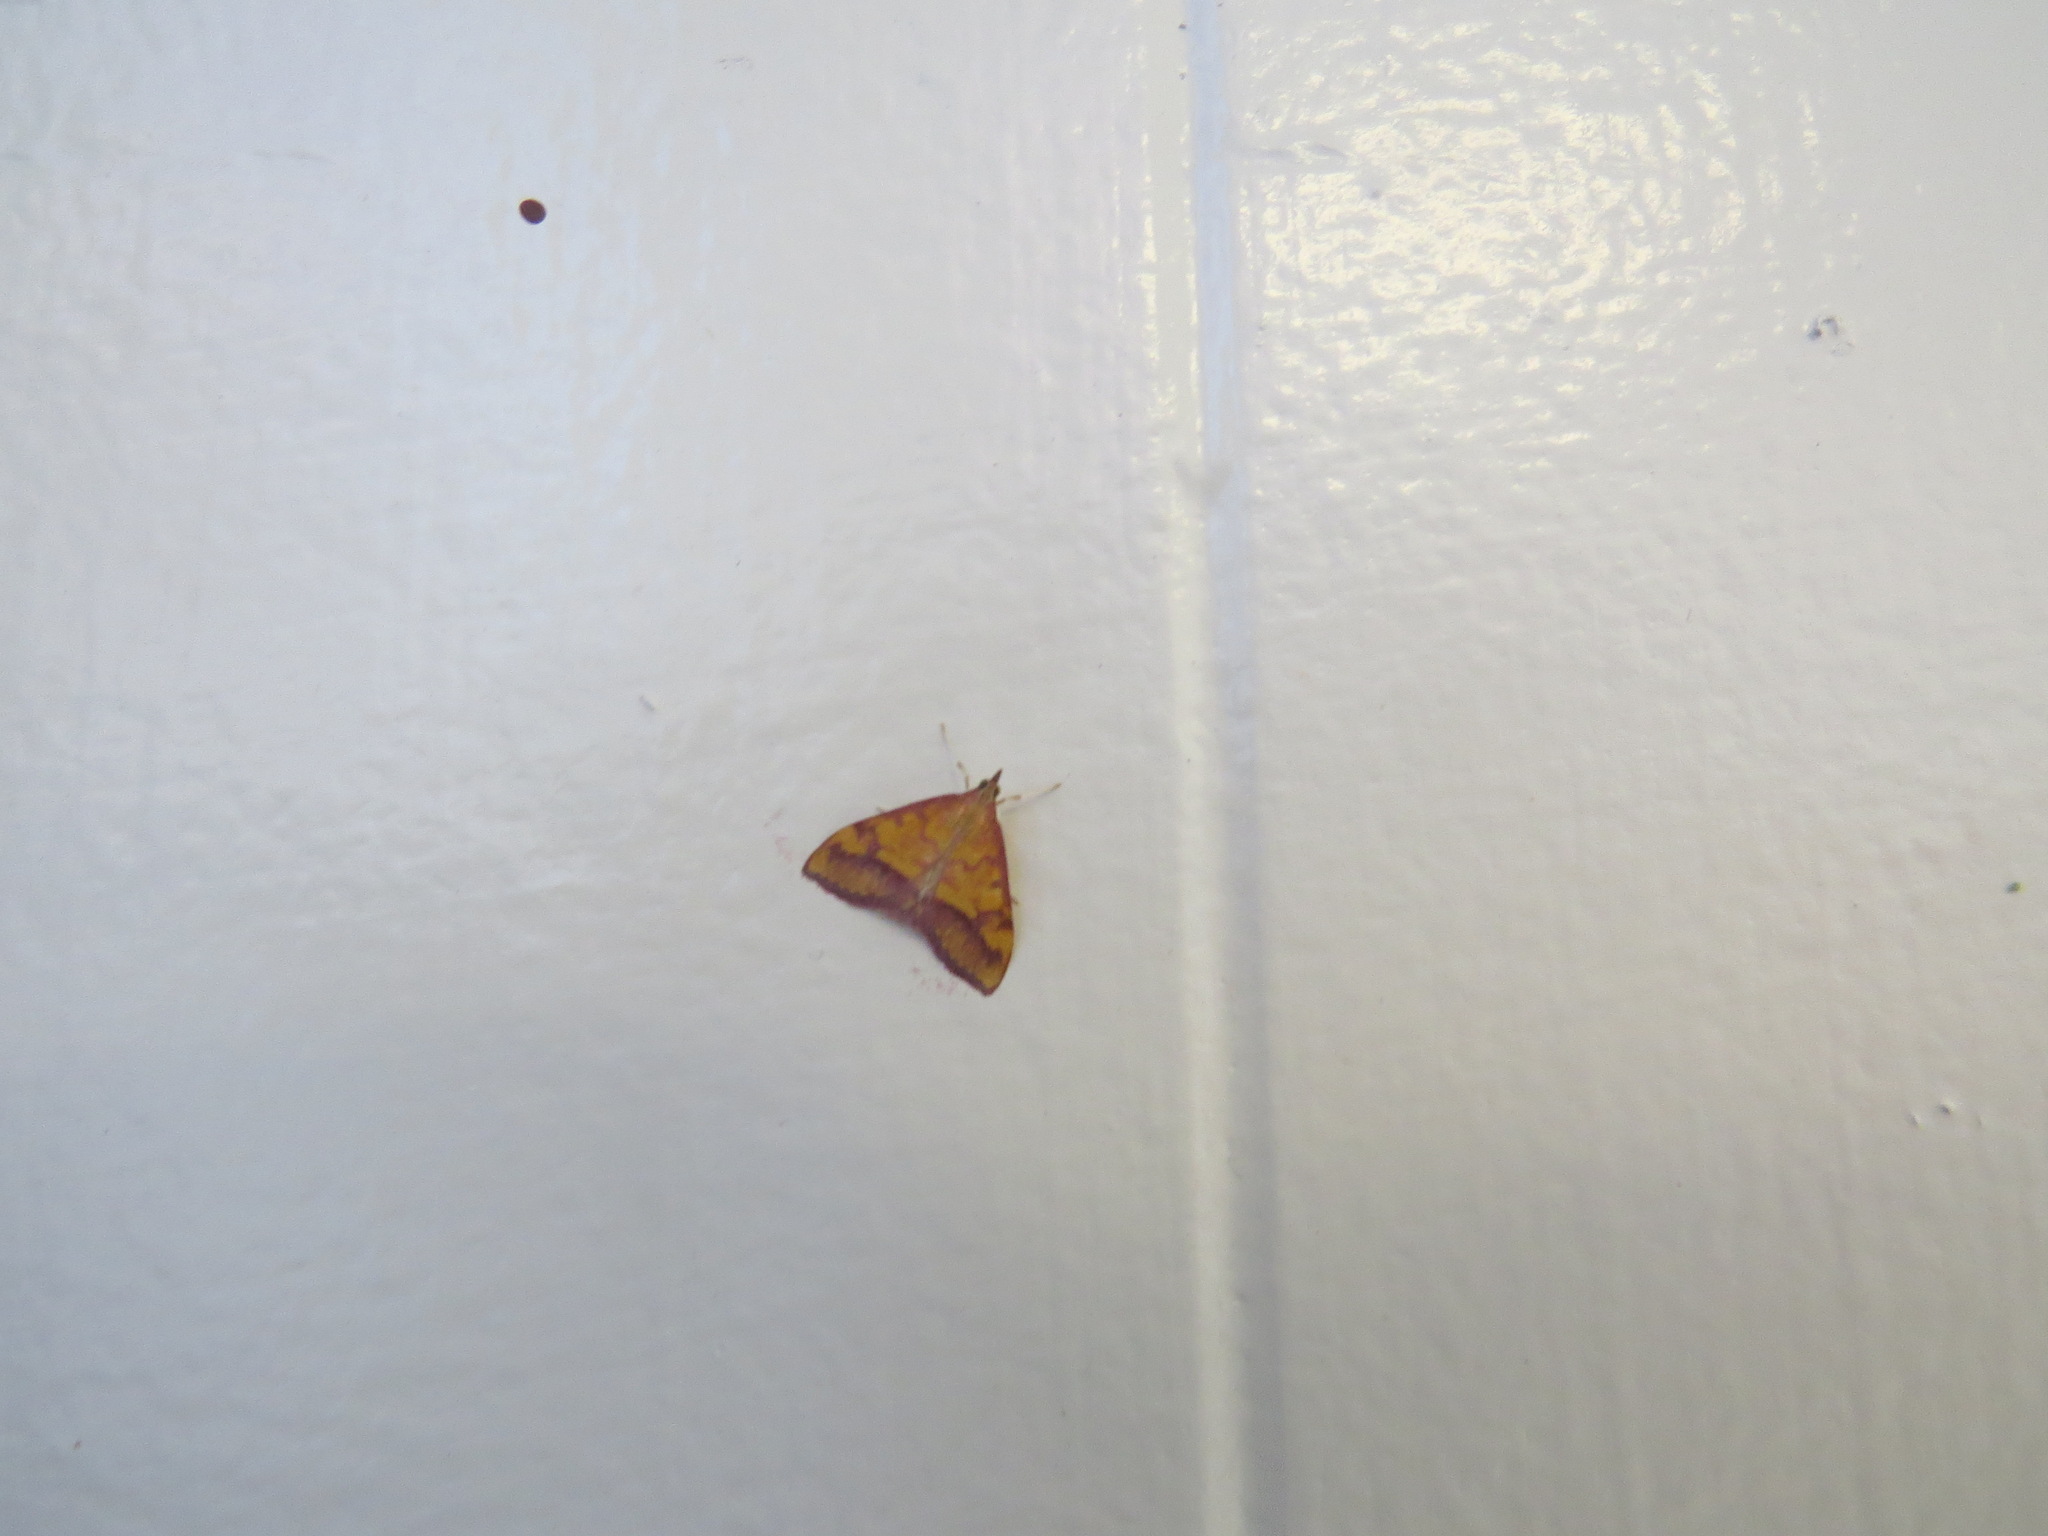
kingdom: Animalia
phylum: Arthropoda
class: Insecta
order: Lepidoptera
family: Crambidae
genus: Pyrausta
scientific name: Pyrausta perrubralis
